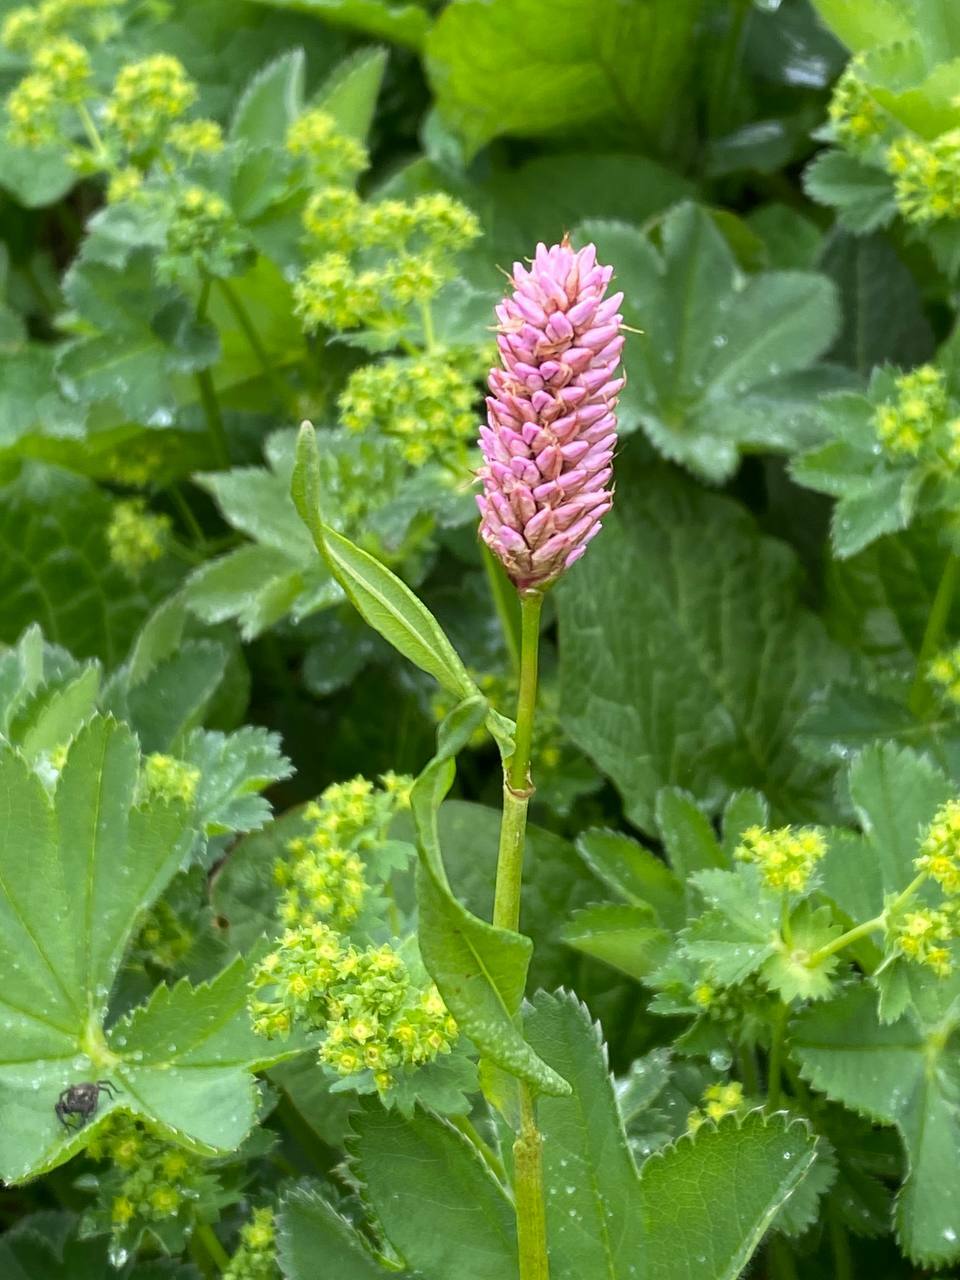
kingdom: Plantae
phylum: Tracheophyta
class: Magnoliopsida
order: Caryophyllales
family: Polygonaceae
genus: Bistorta
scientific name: Bistorta carnea
